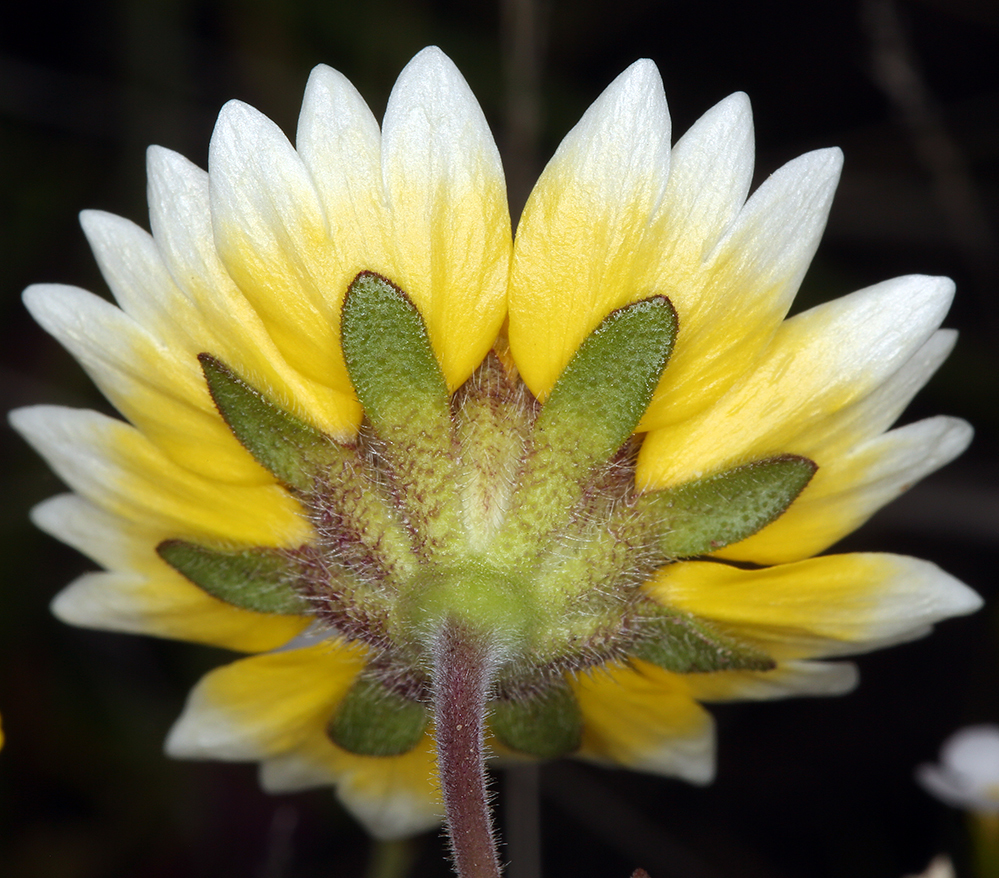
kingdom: Plantae
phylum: Tracheophyta
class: Magnoliopsida
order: Asterales
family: Asteraceae
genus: Layia
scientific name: Layia fremontii
